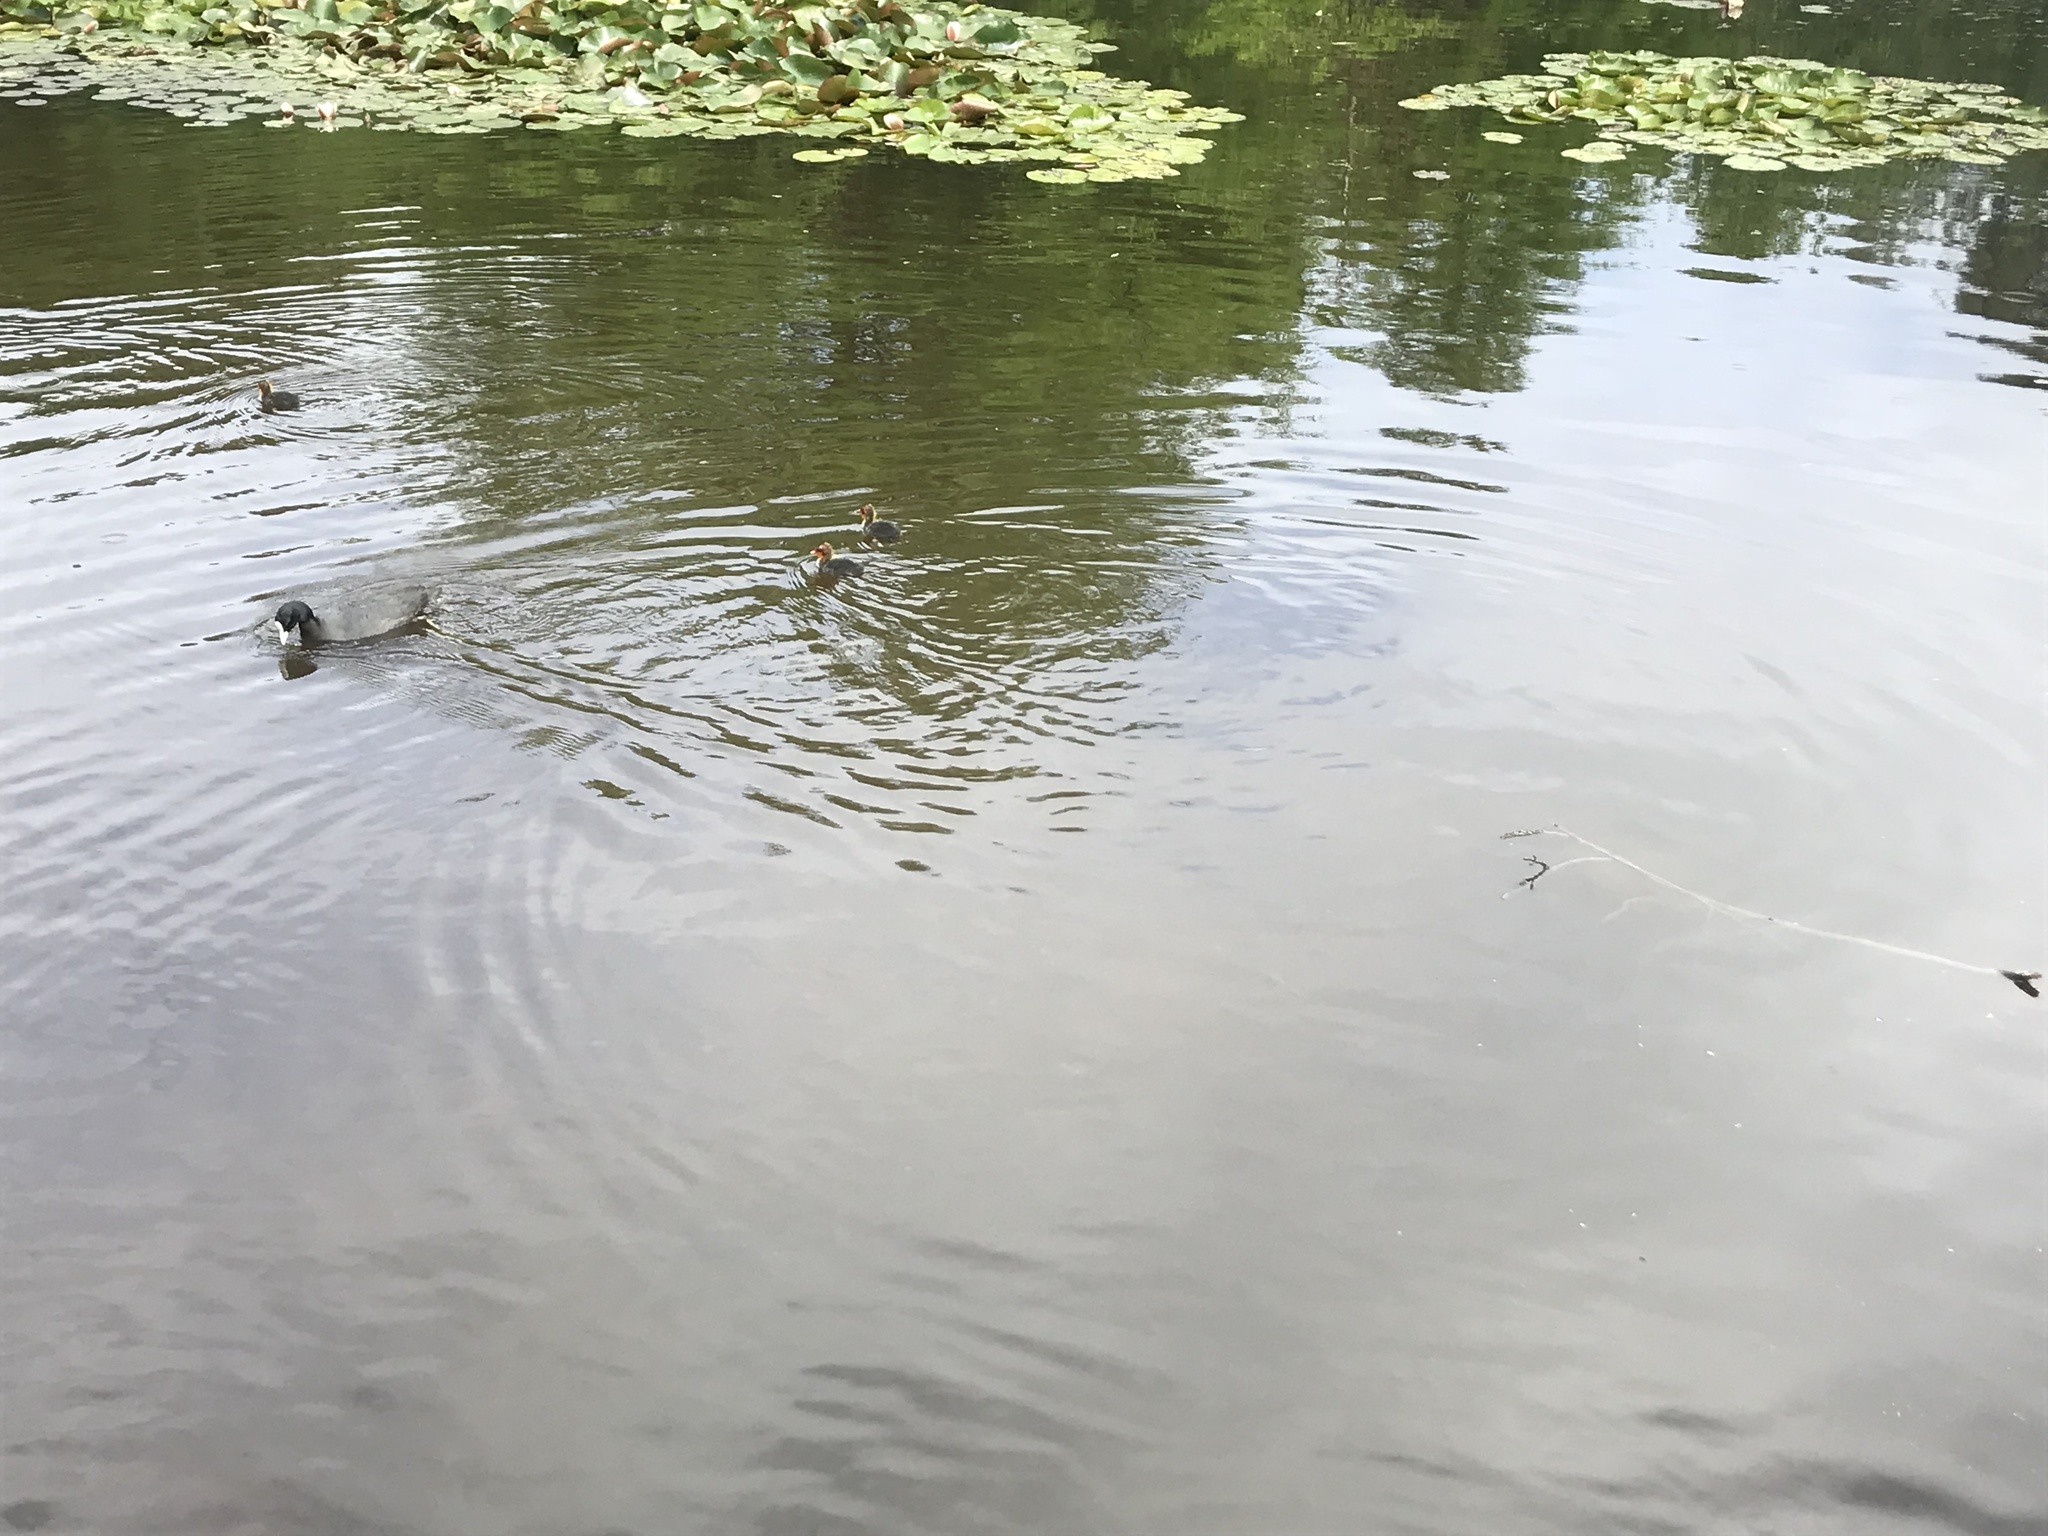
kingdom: Animalia
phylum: Chordata
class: Aves
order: Gruiformes
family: Rallidae
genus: Fulica
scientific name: Fulica atra
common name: Eurasian coot
